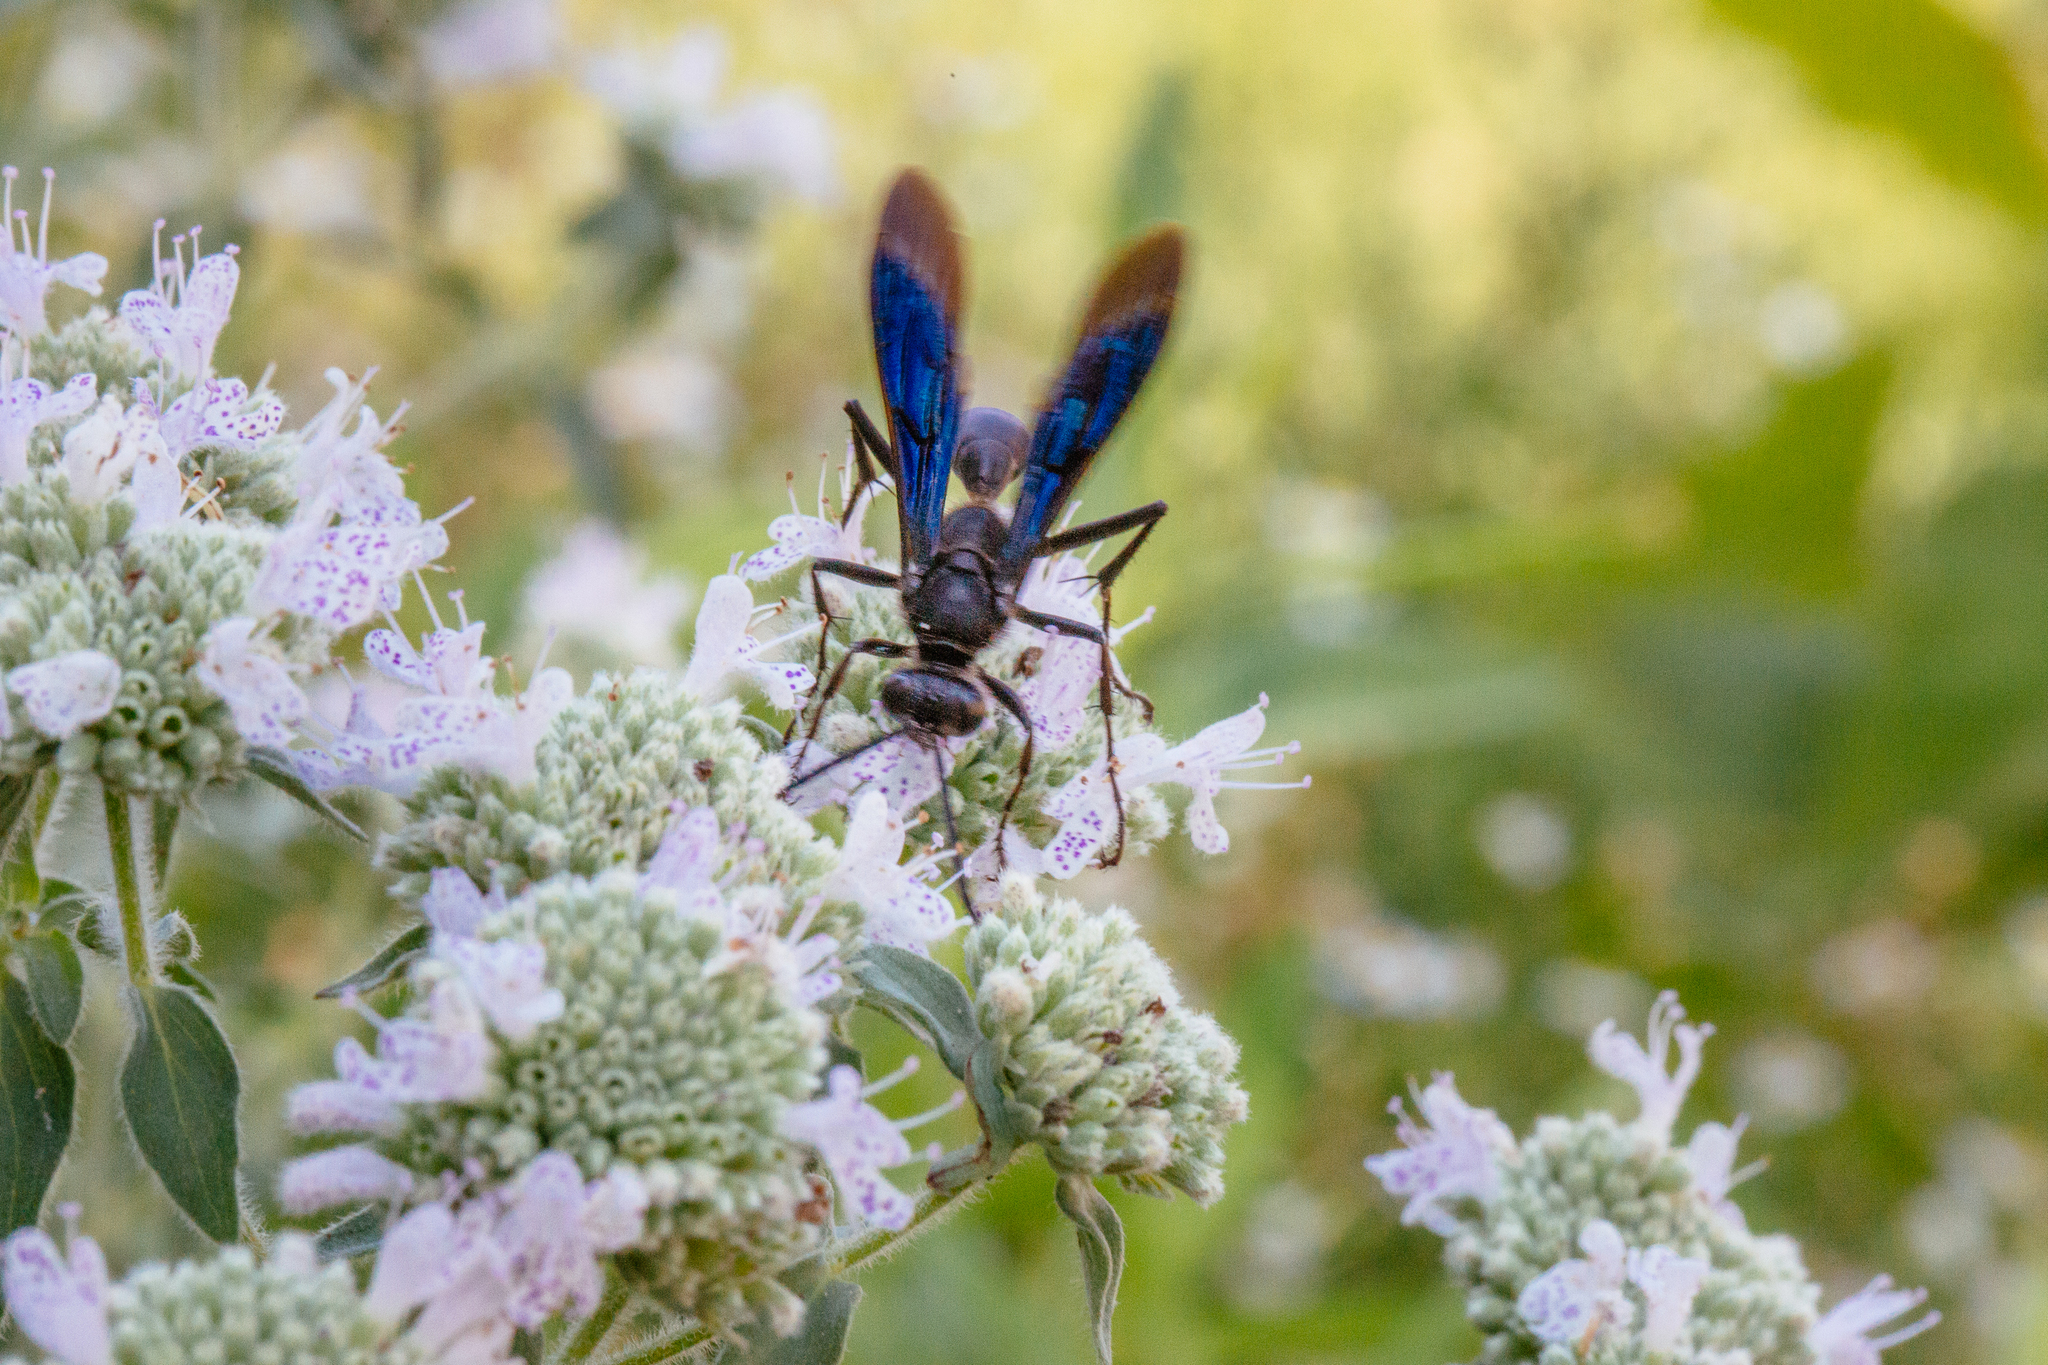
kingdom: Animalia
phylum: Arthropoda
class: Insecta
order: Hymenoptera
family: Sphecidae
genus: Sphex
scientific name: Sphex pensylvanicus
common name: Great black digger wasp
